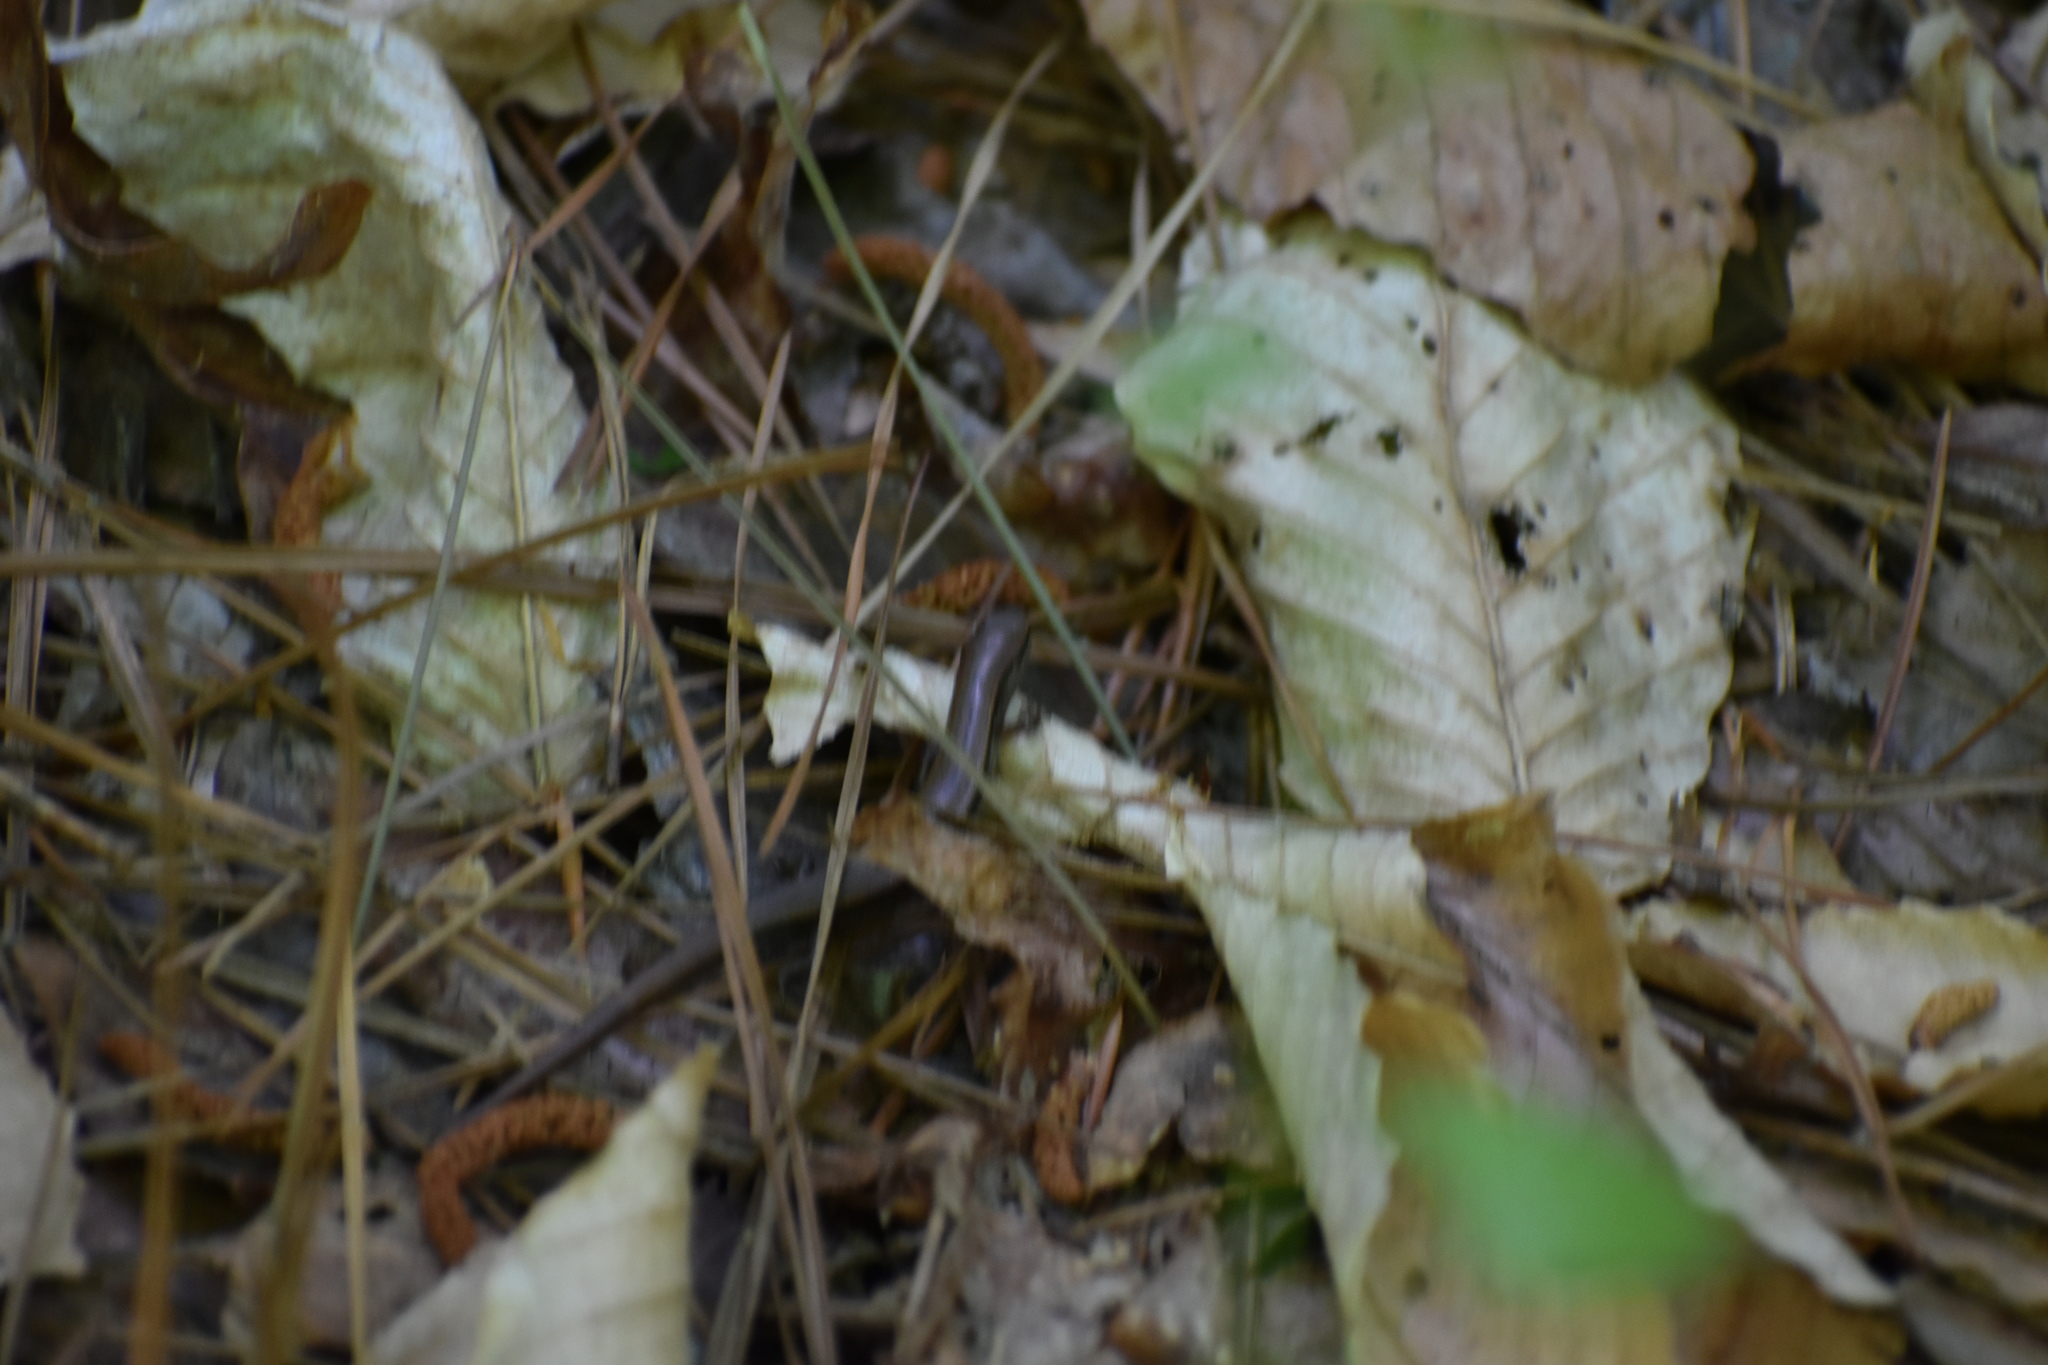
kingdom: Animalia
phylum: Chordata
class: Squamata
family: Scincidae
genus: Scincella
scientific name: Scincella lateralis
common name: Ground skink
